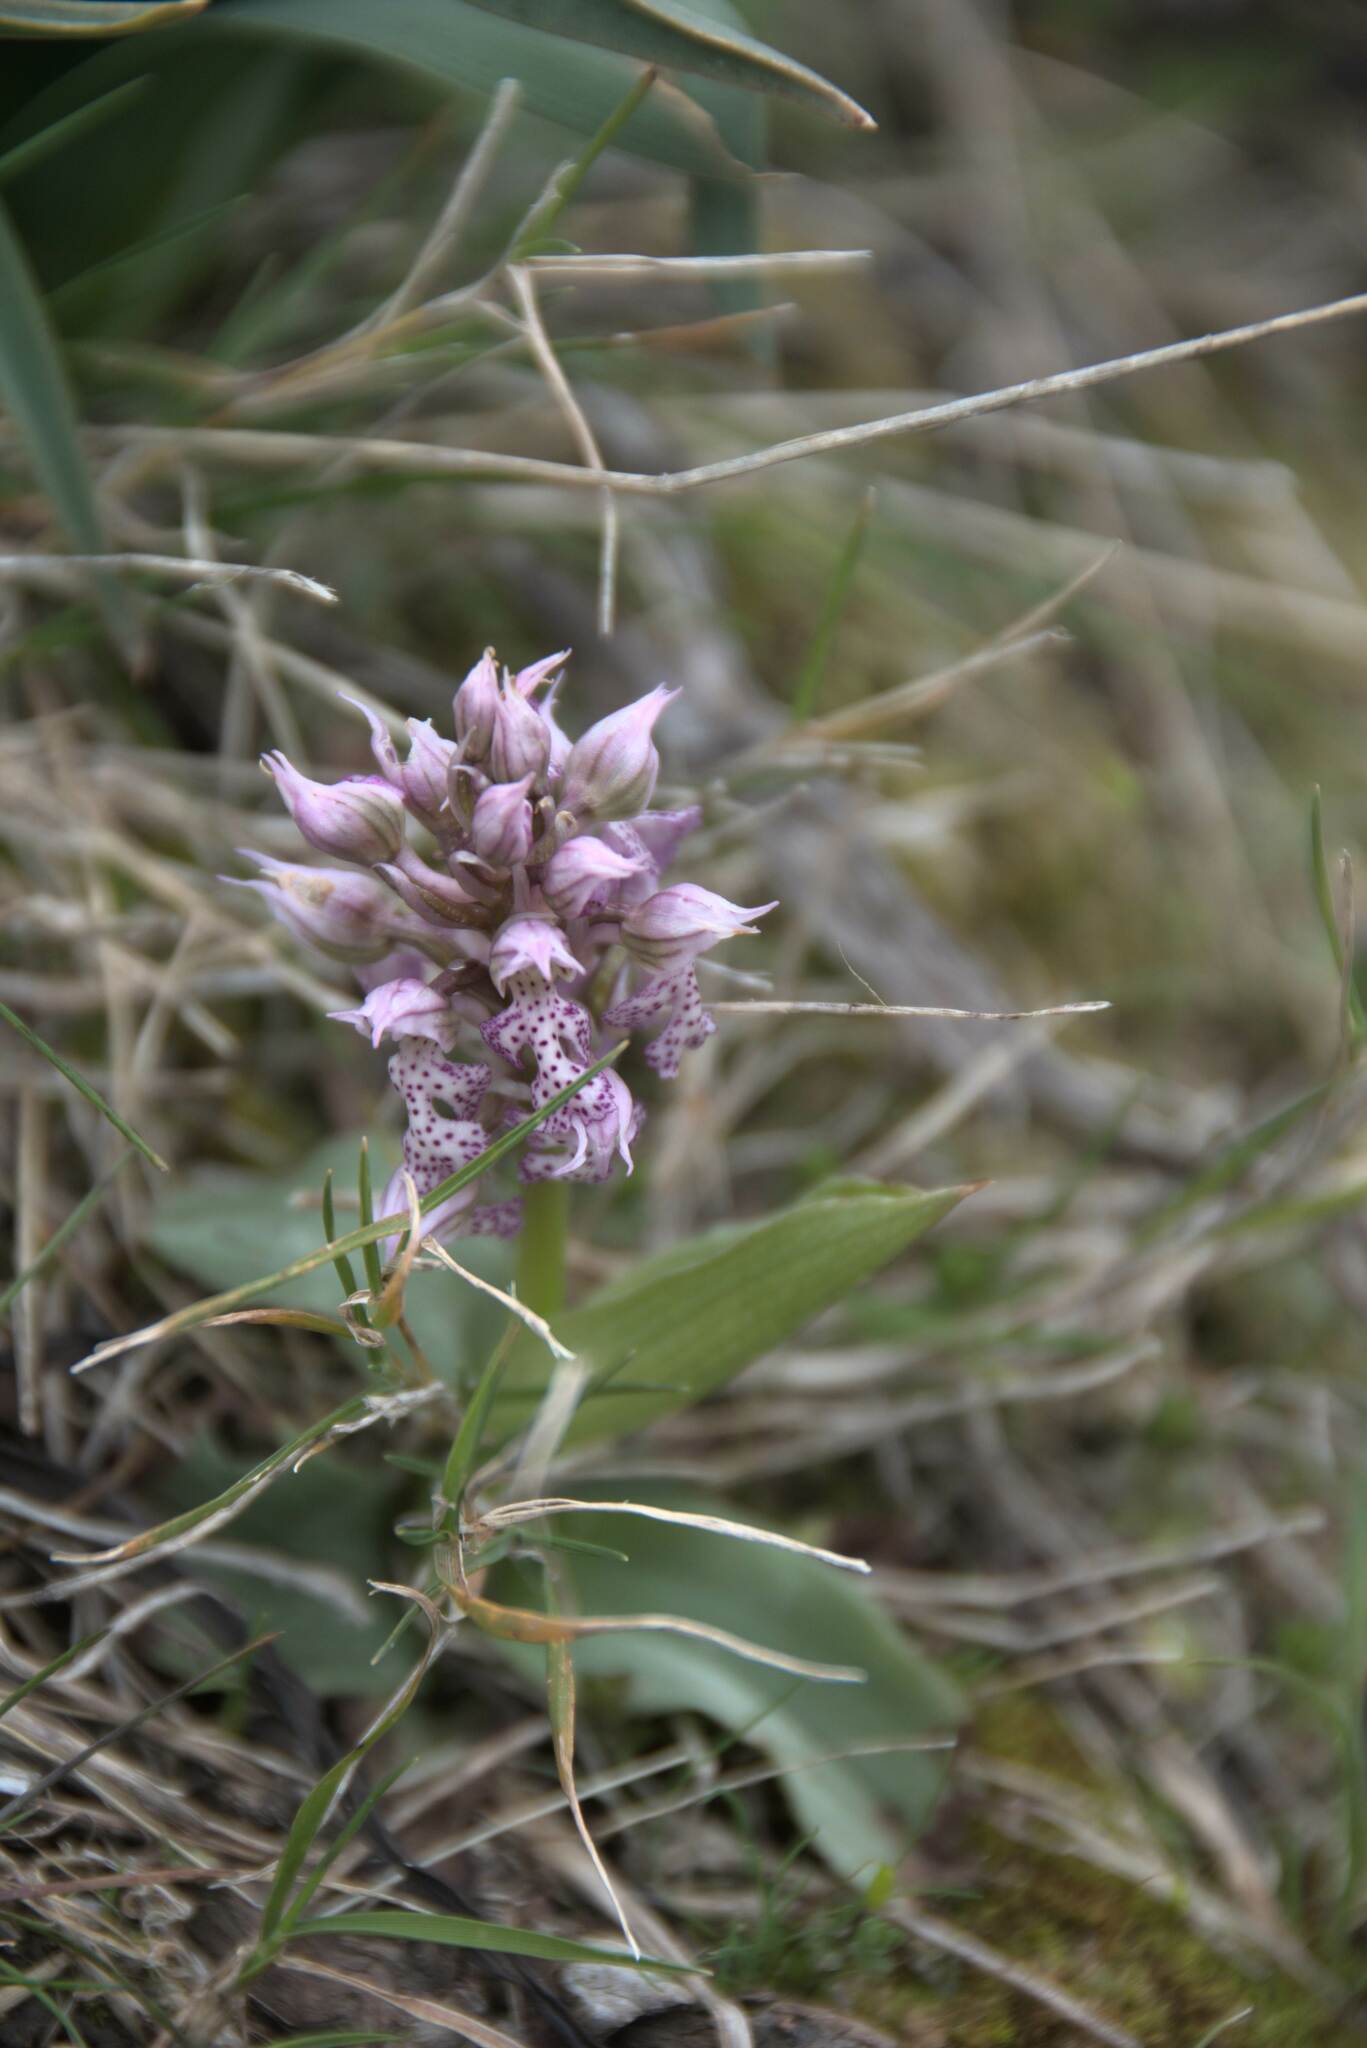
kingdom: Plantae
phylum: Tracheophyta
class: Liliopsida
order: Asparagales
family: Orchidaceae
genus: Neotinea
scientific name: Neotinea lactea
